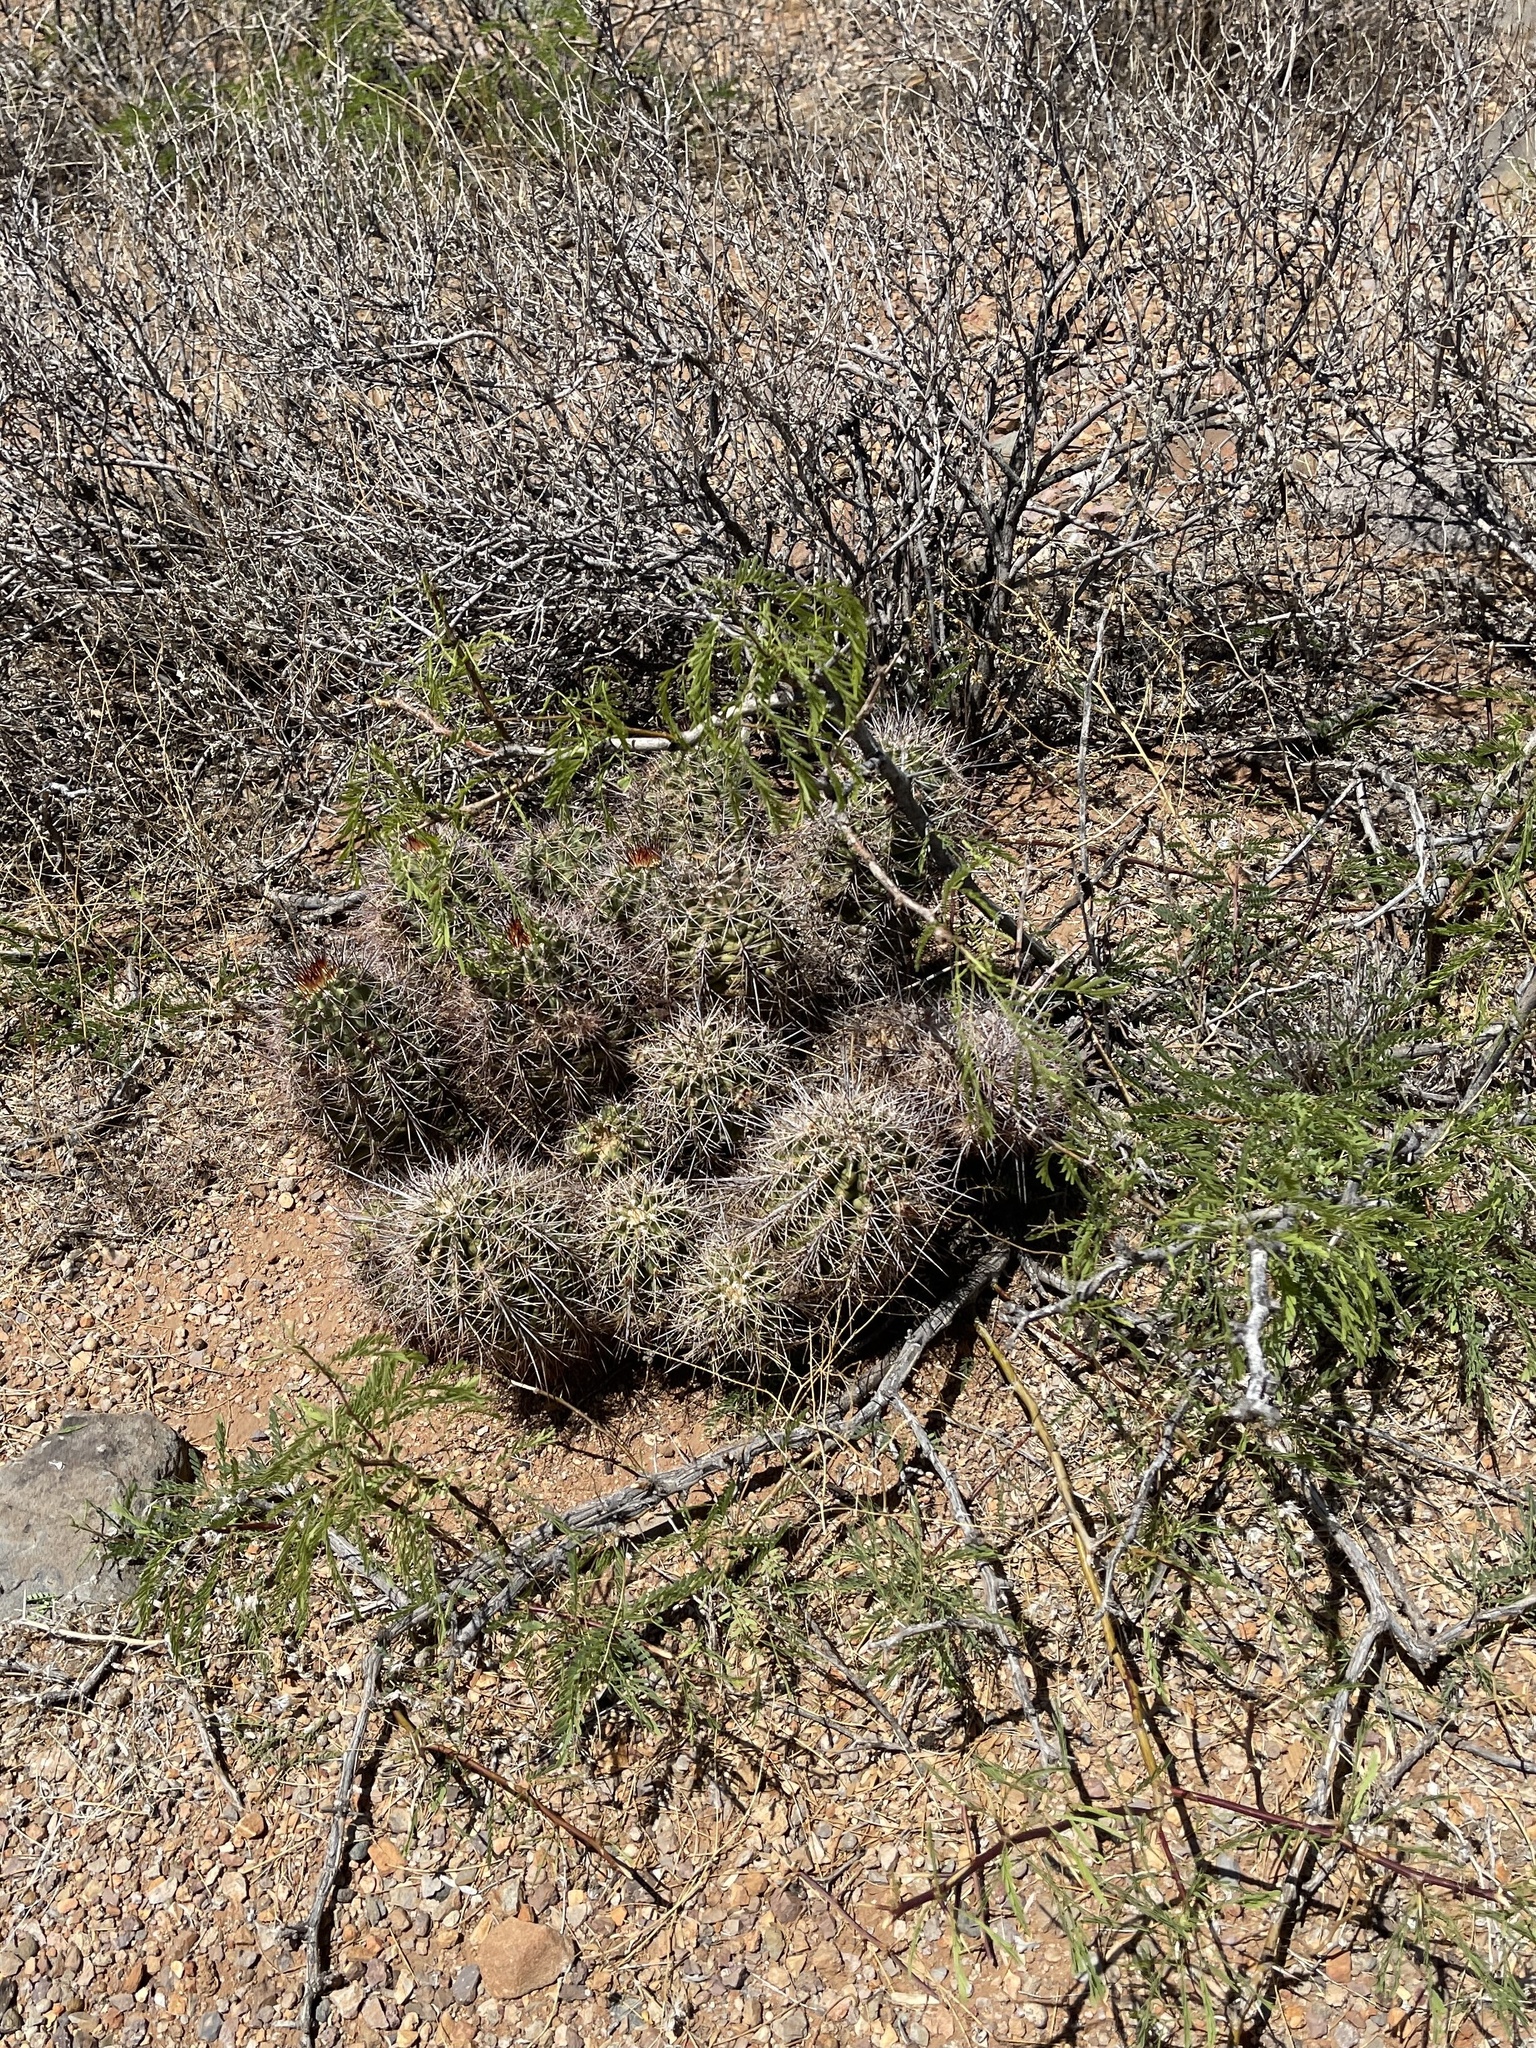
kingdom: Plantae
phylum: Tracheophyta
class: Magnoliopsida
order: Caryophyllales
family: Cactaceae
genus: Echinocereus
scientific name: Echinocereus coccineus
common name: Scarlet hedgehog cactus
